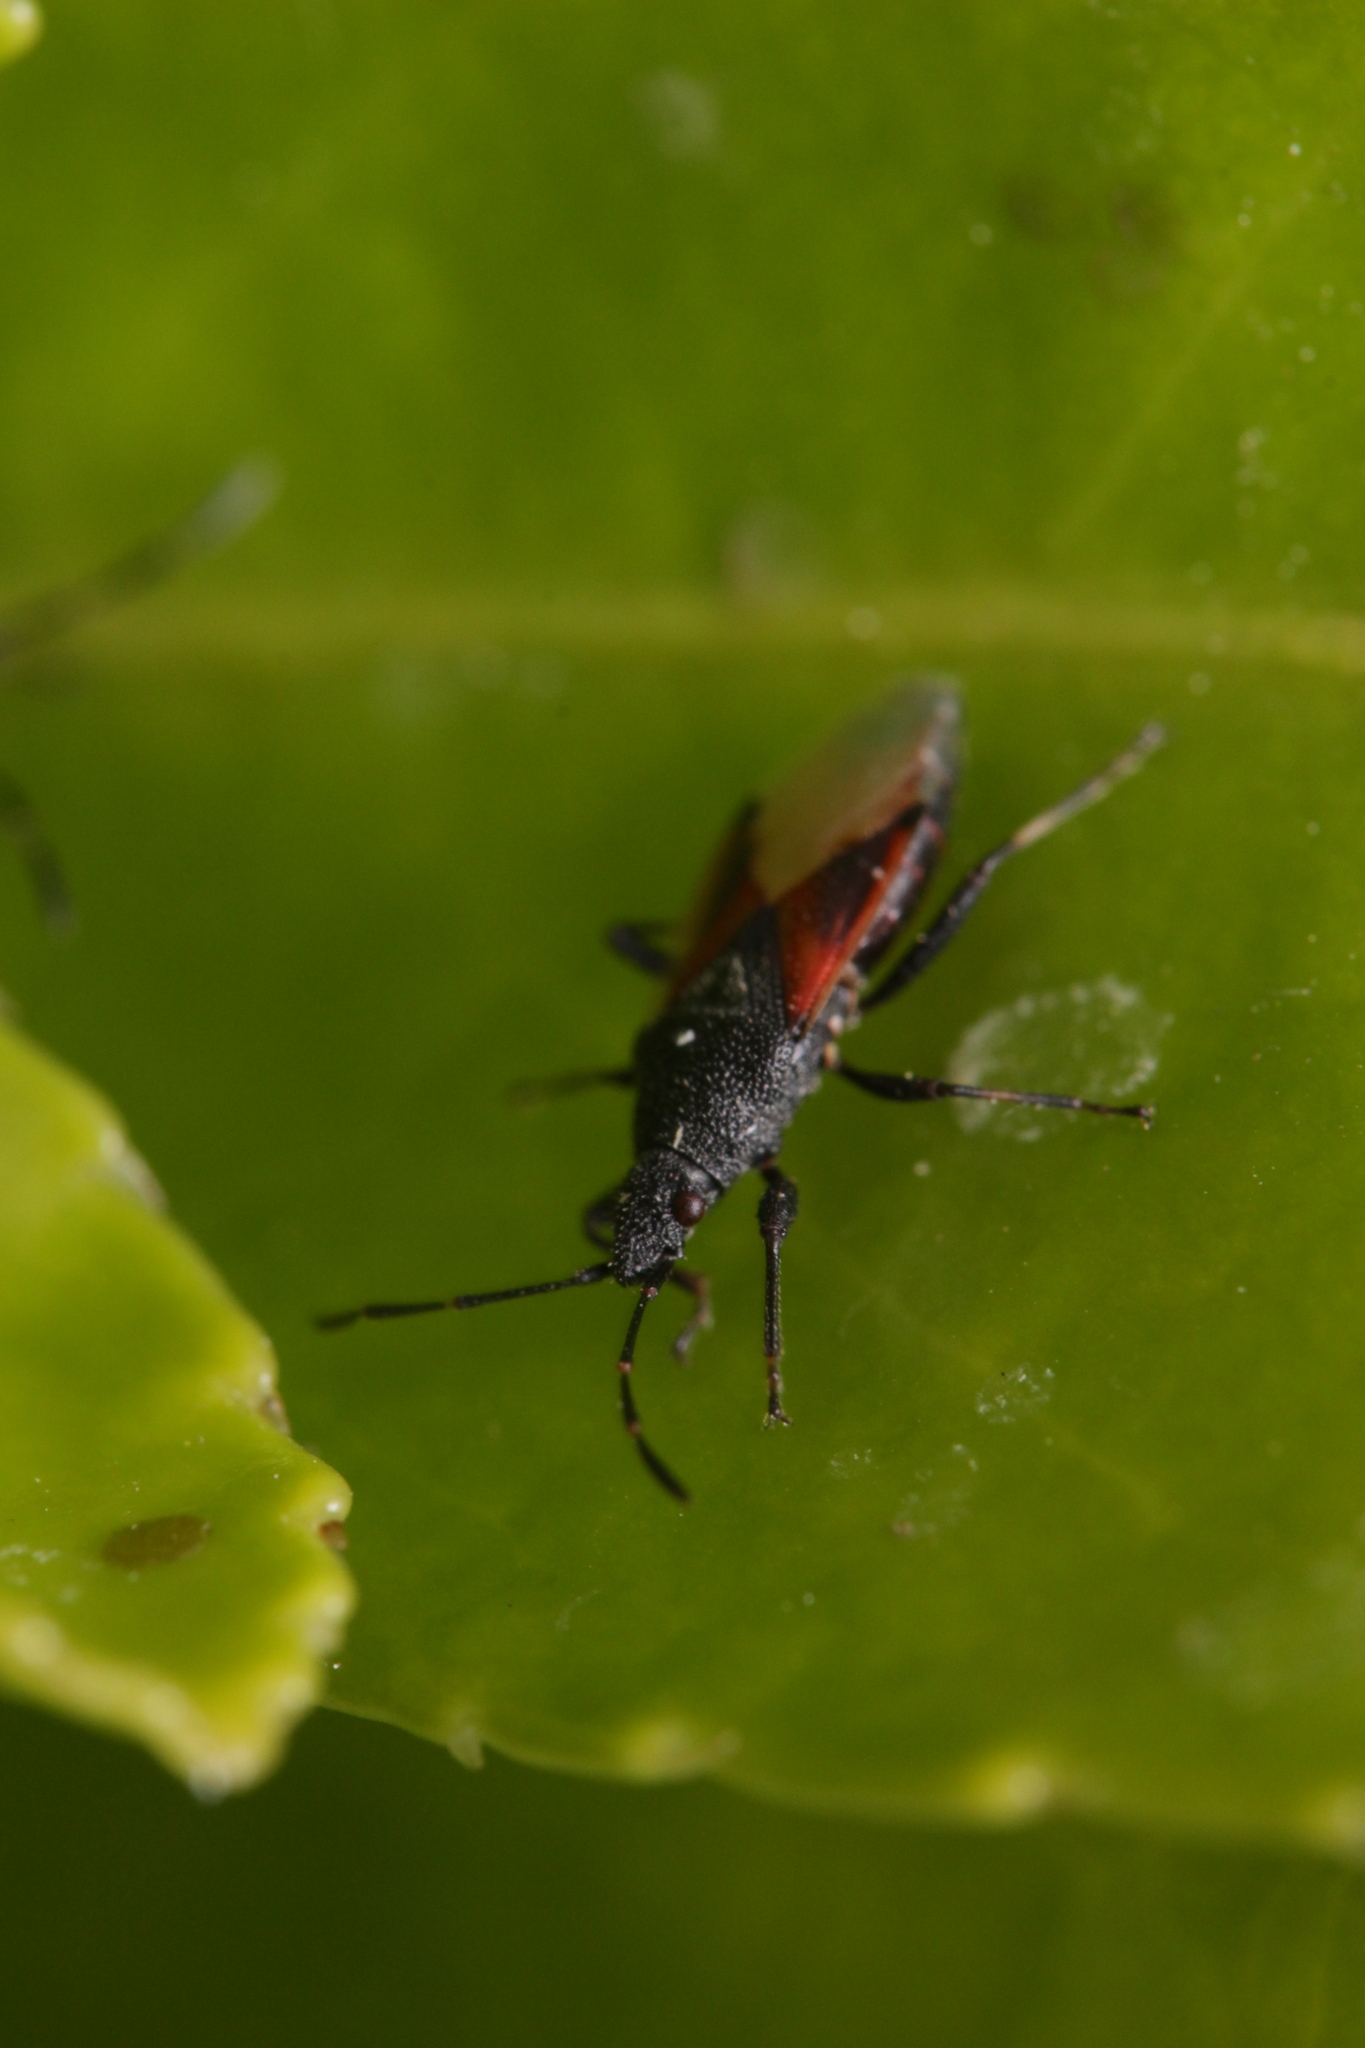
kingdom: Animalia
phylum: Arthropoda
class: Insecta
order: Hemiptera
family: Oxycarenidae
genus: Oxycarenus
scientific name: Oxycarenus lavaterae
